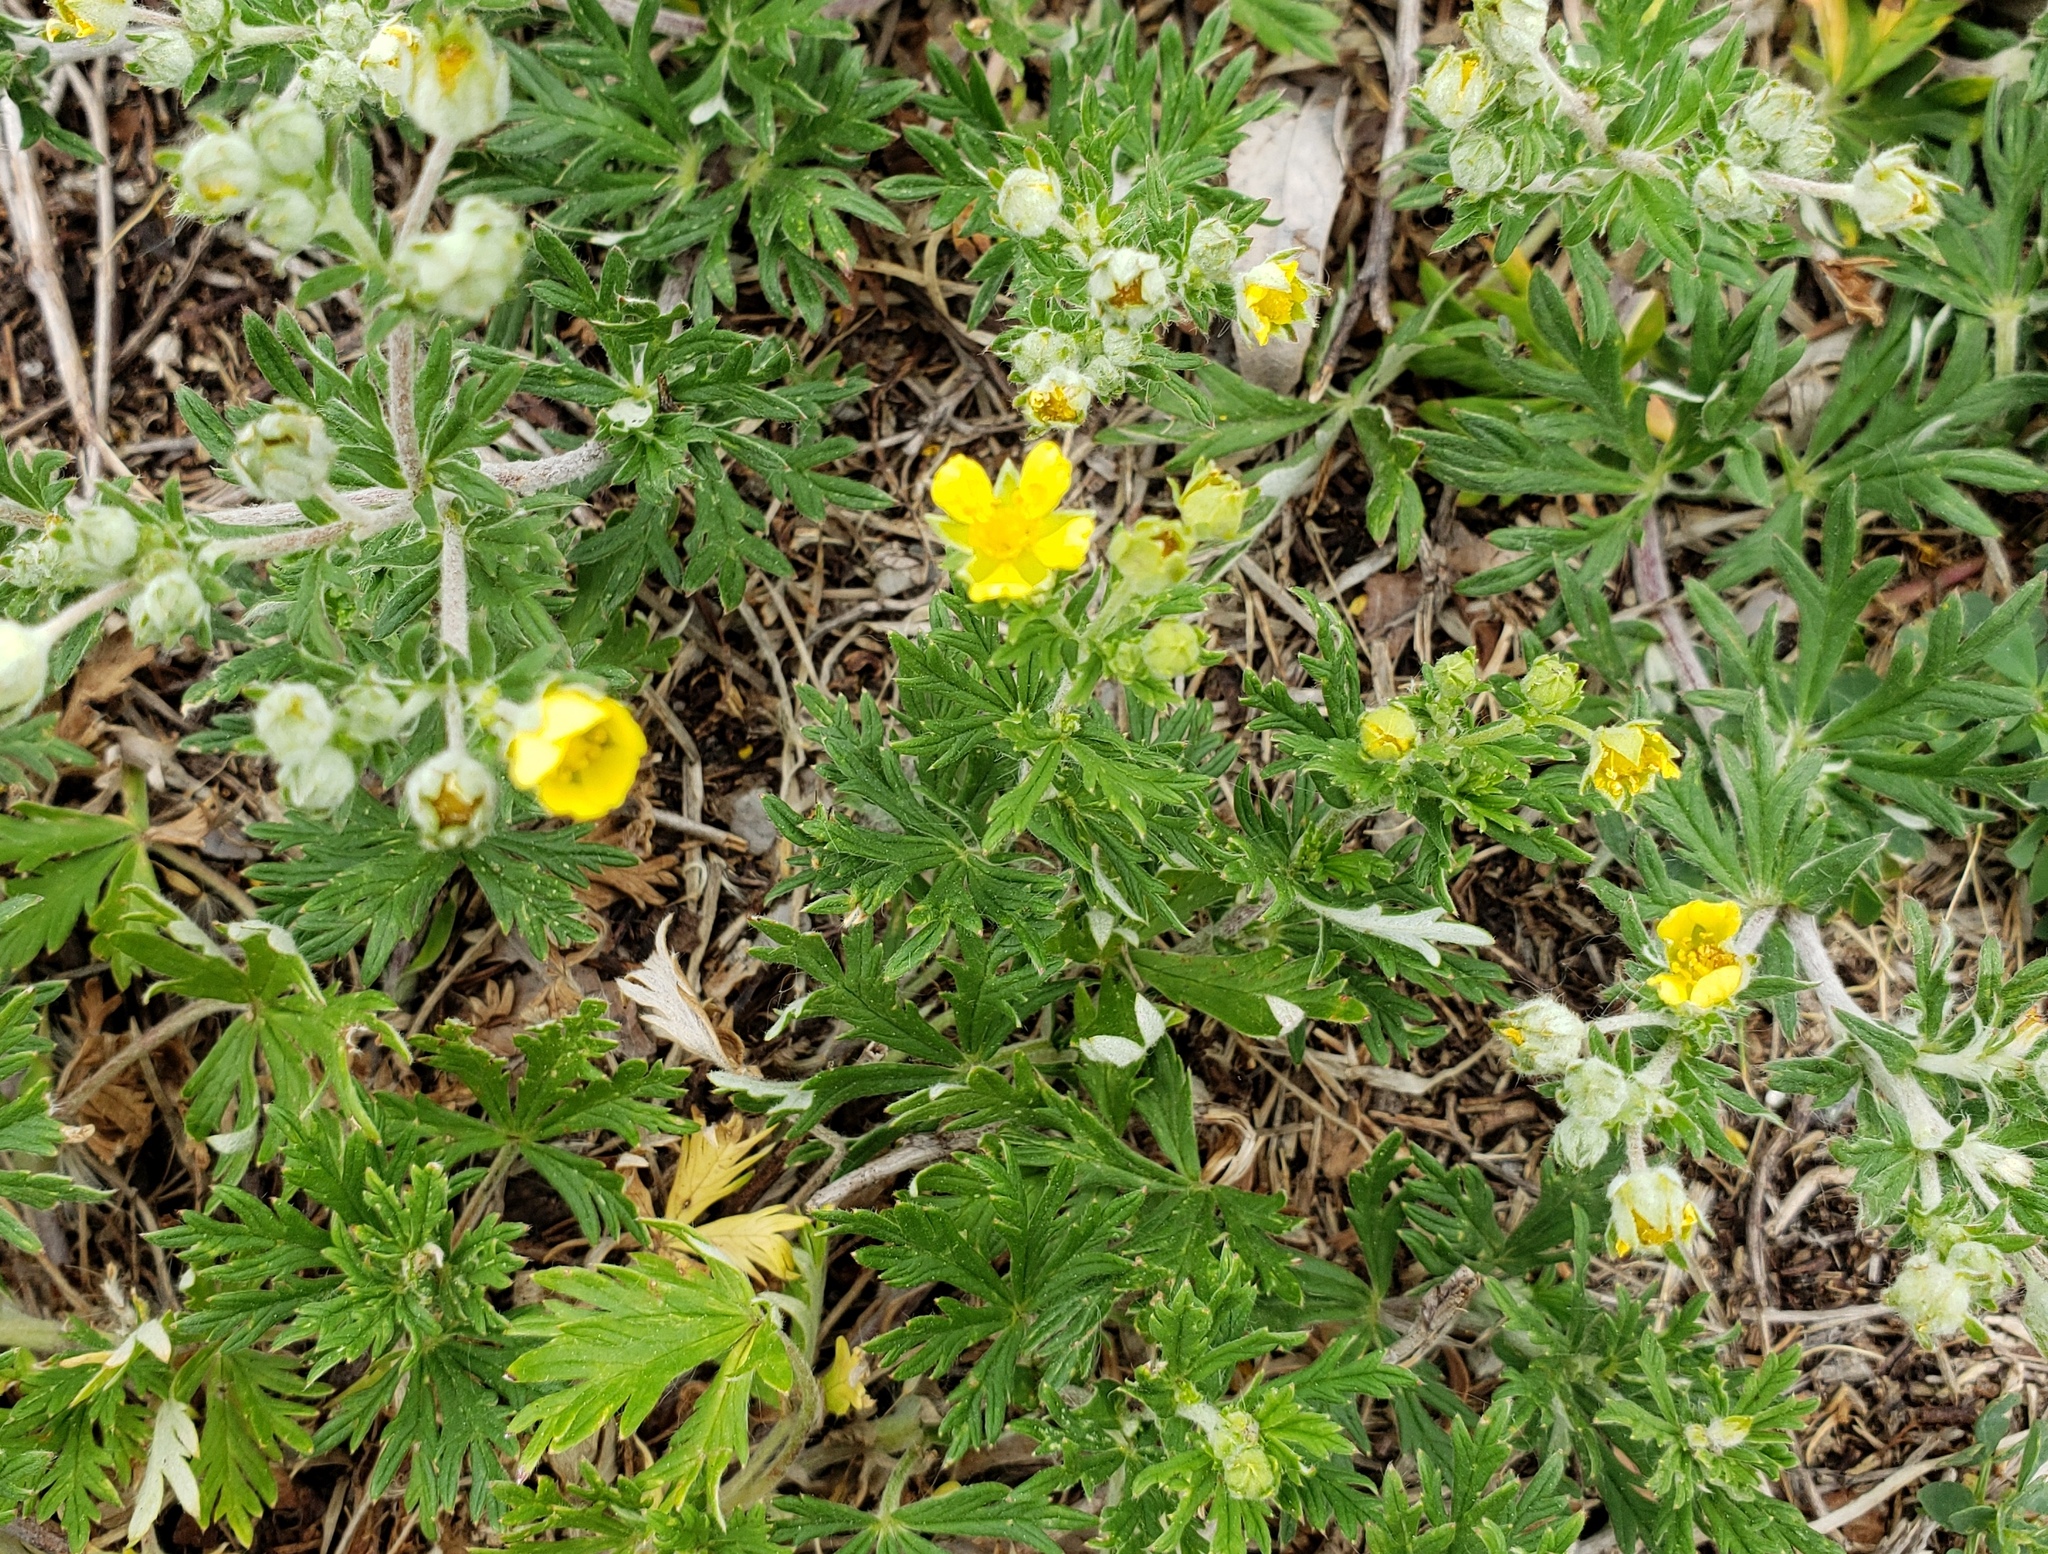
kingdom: Plantae
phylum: Tracheophyta
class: Magnoliopsida
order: Rosales
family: Rosaceae
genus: Potentilla
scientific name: Potentilla argentea
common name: Hoary cinquefoil
